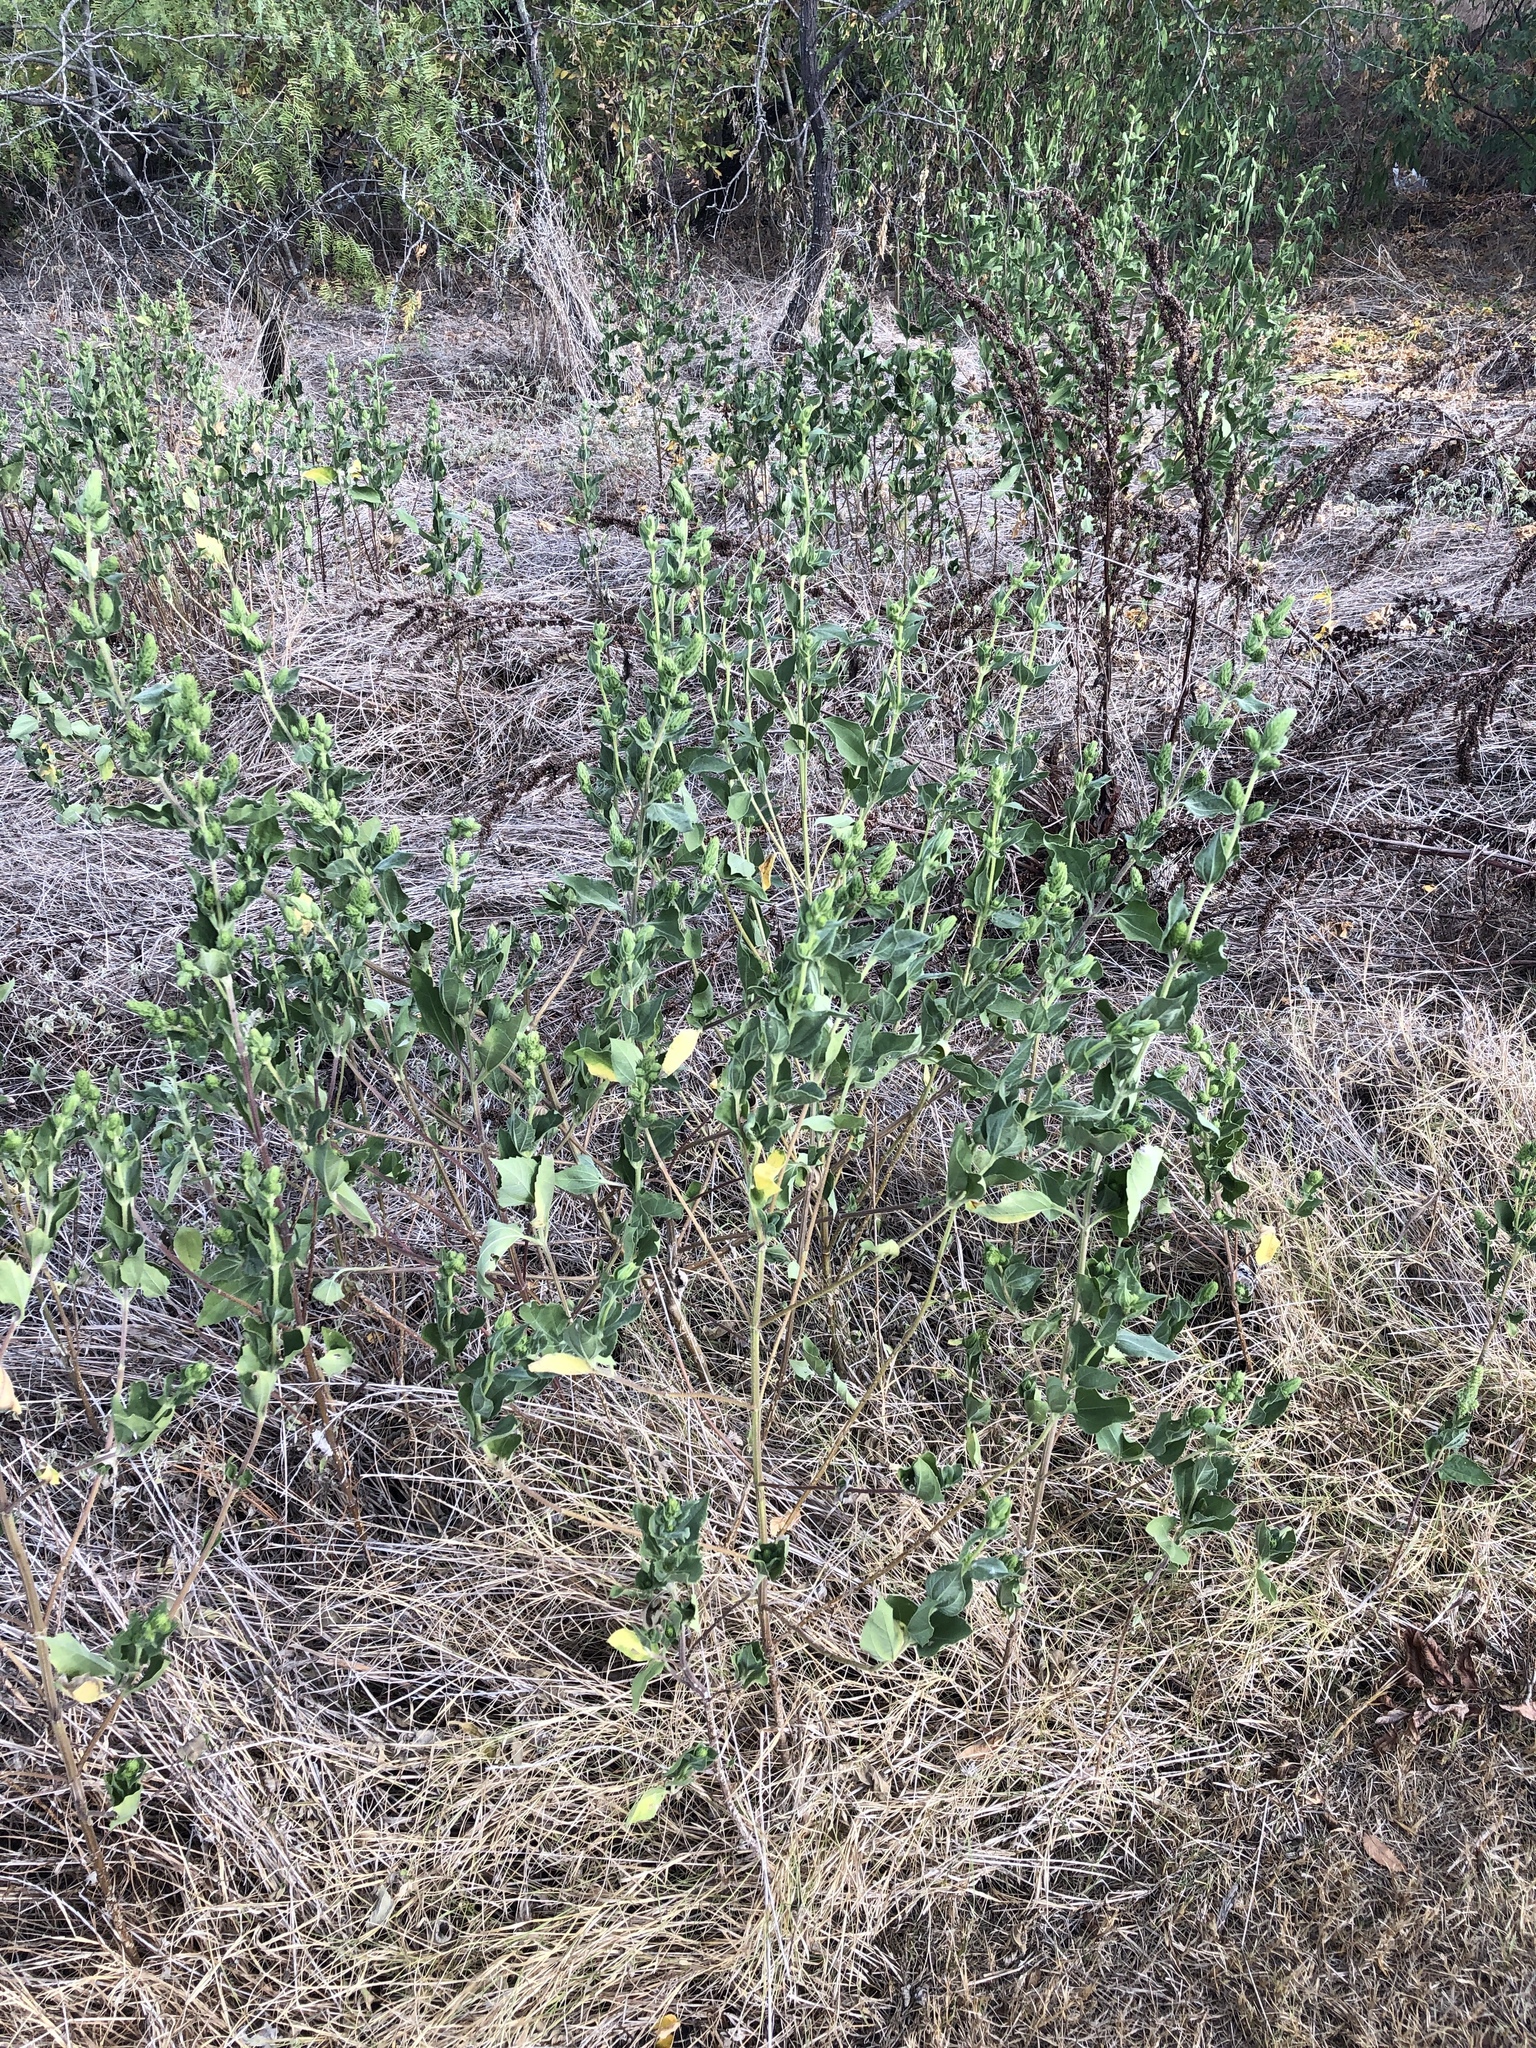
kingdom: Plantae
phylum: Tracheophyta
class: Magnoliopsida
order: Asterales
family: Asteraceae
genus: Iva
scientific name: Iva annua
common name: Marsh-elder
